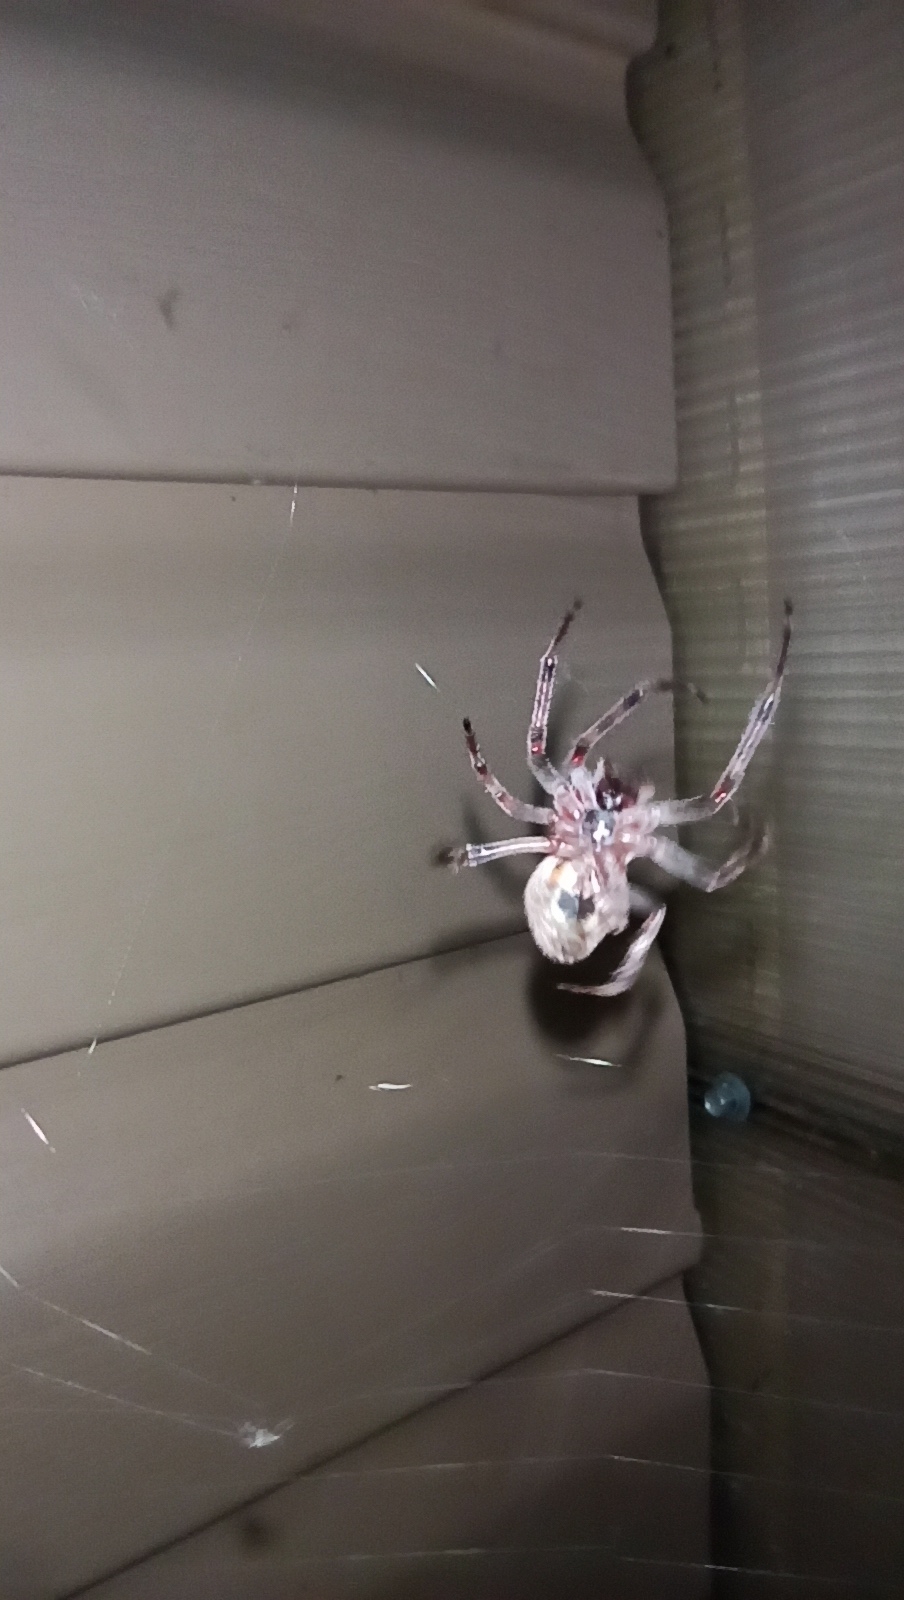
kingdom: Animalia
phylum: Arthropoda
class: Arachnida
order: Araneae
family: Araneidae
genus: Larinioides
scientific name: Larinioides ixobolus
